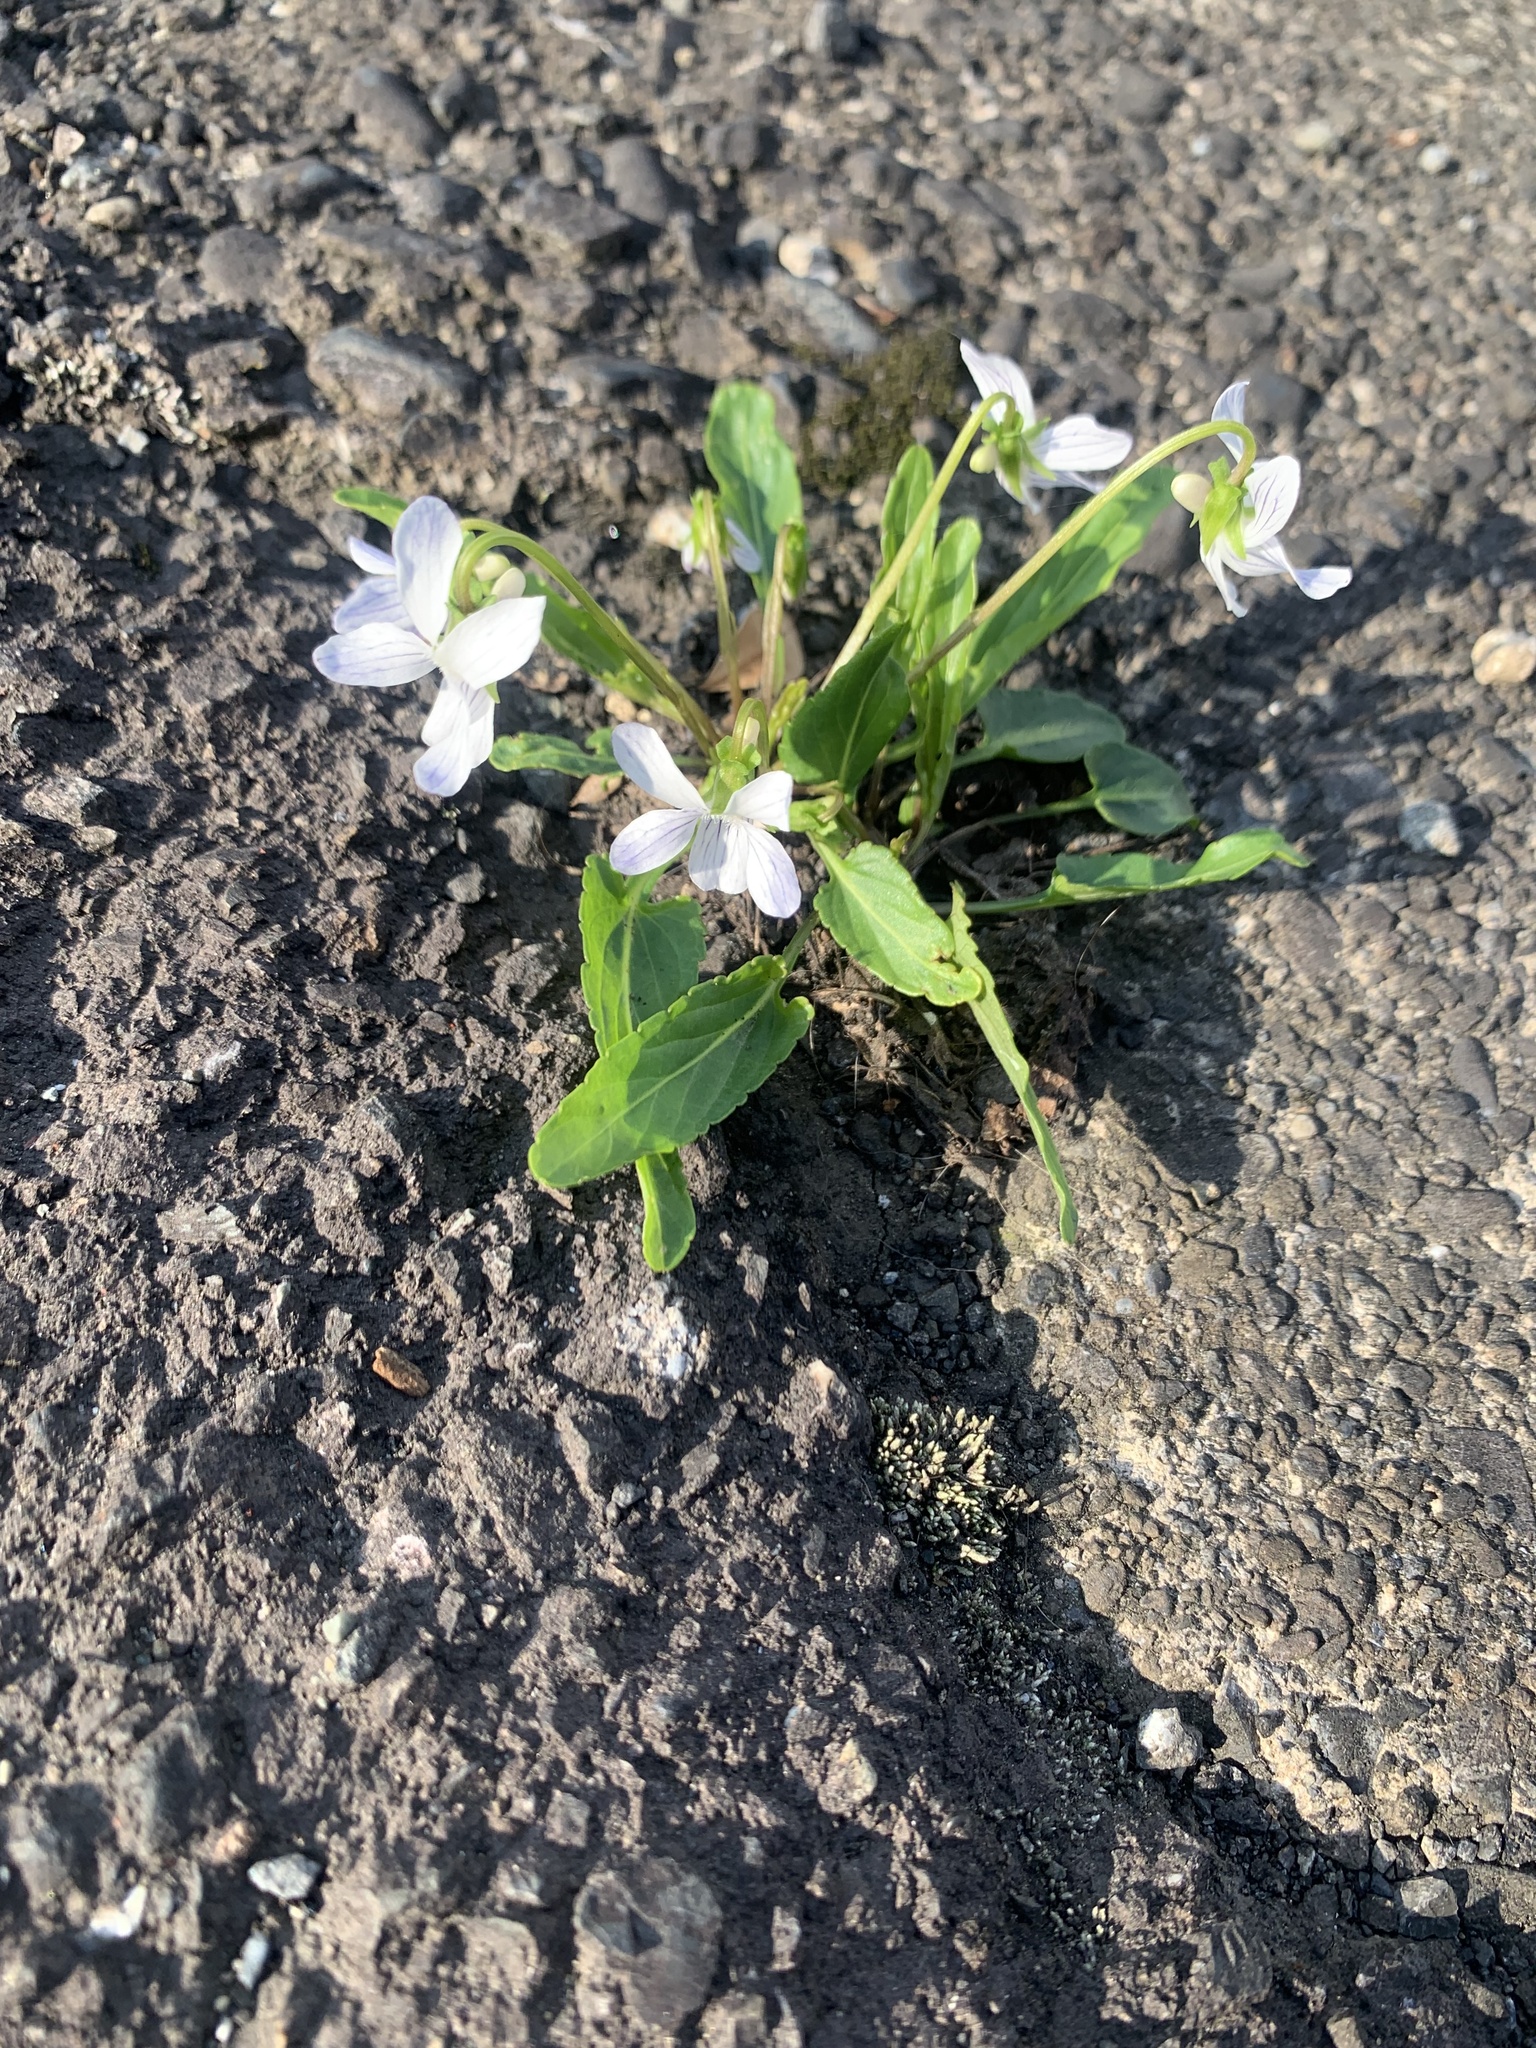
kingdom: Plantae
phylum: Tracheophyta
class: Magnoliopsida
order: Malpighiales
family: Violaceae
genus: Viola
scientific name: Viola betonicifolia
